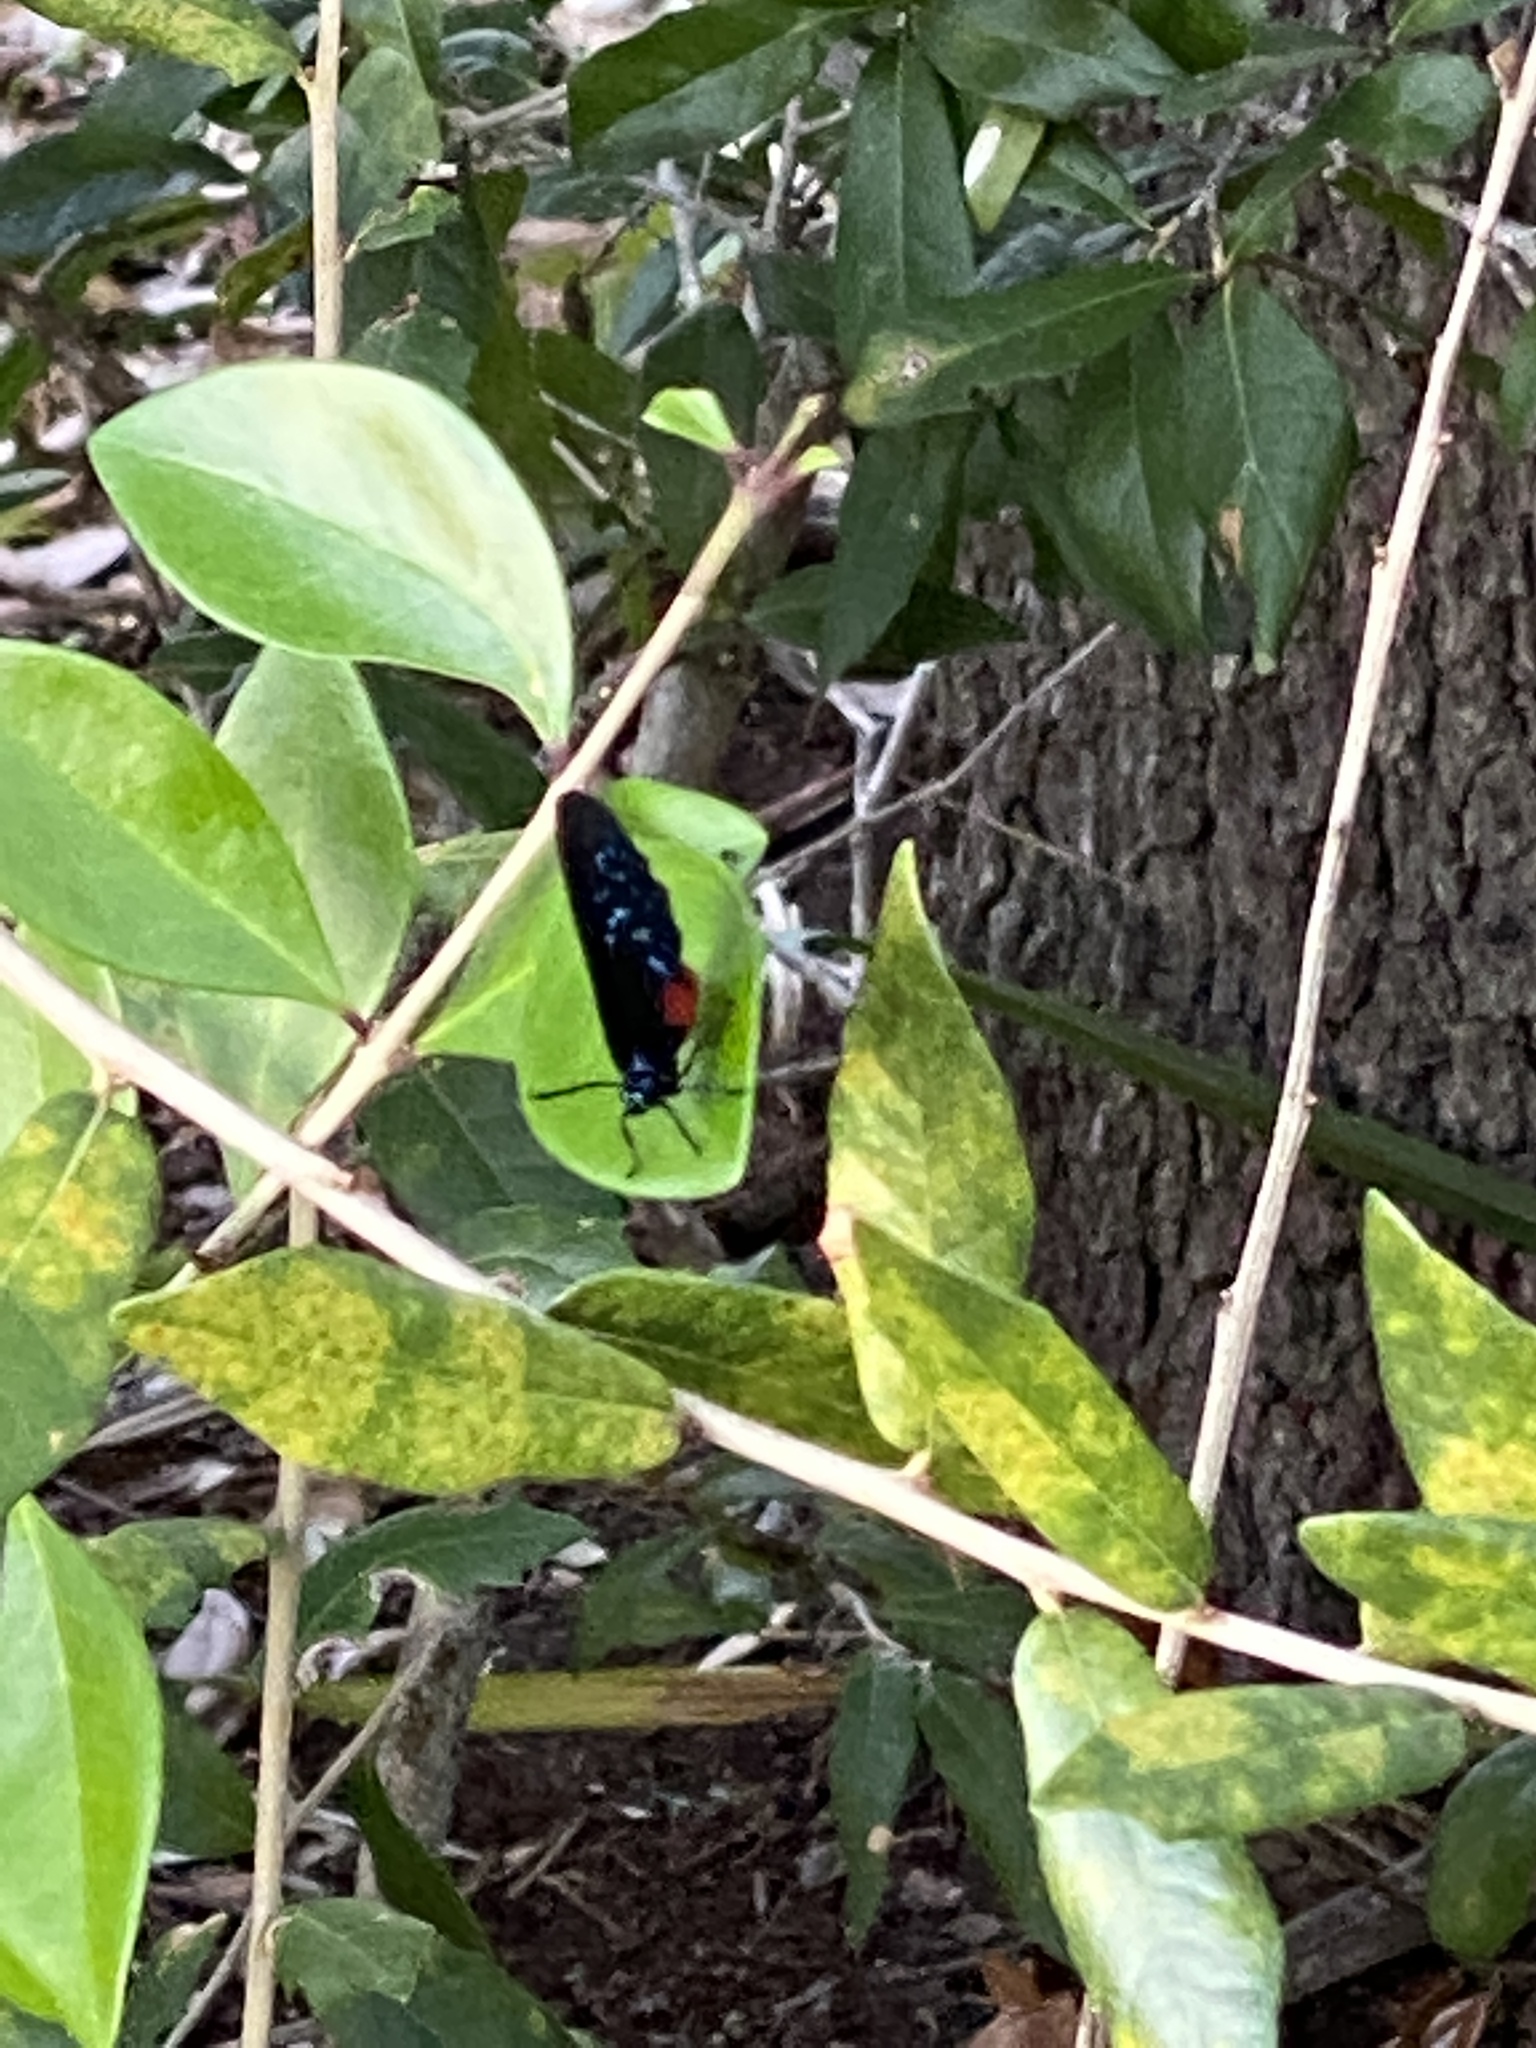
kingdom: Animalia
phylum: Arthropoda
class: Insecta
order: Lepidoptera
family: Lycaenidae
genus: Eumaeus
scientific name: Eumaeus atala
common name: Atala
